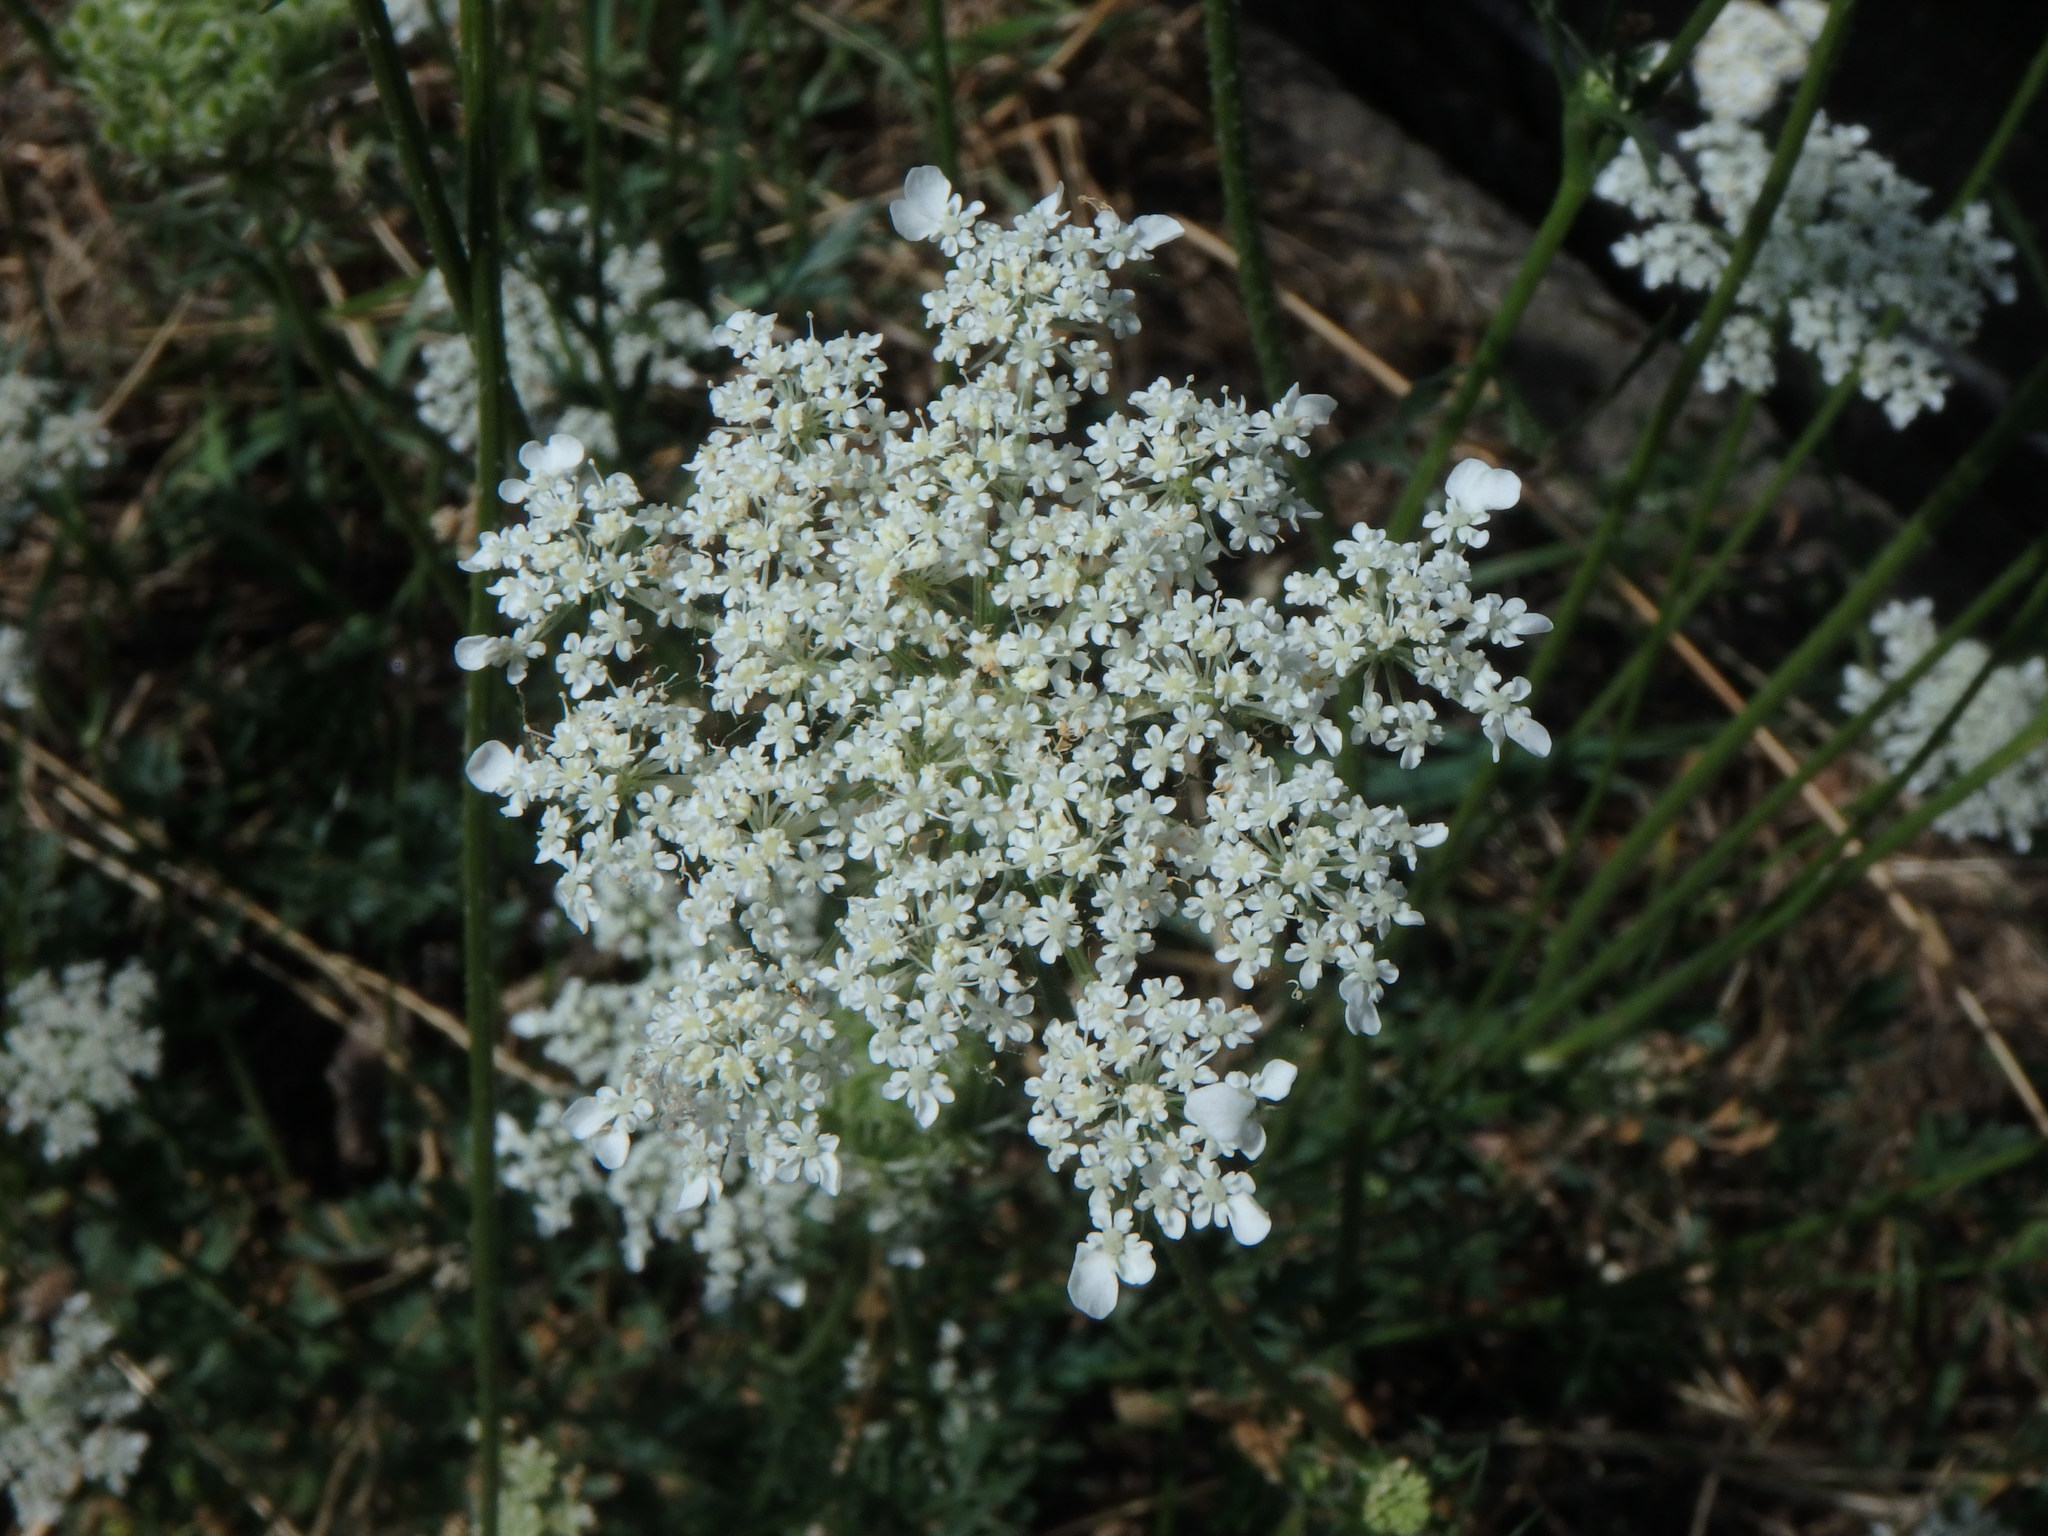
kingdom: Plantae
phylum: Tracheophyta
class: Magnoliopsida
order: Apiales
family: Apiaceae
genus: Daucus
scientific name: Daucus carota
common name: Wild carrot
